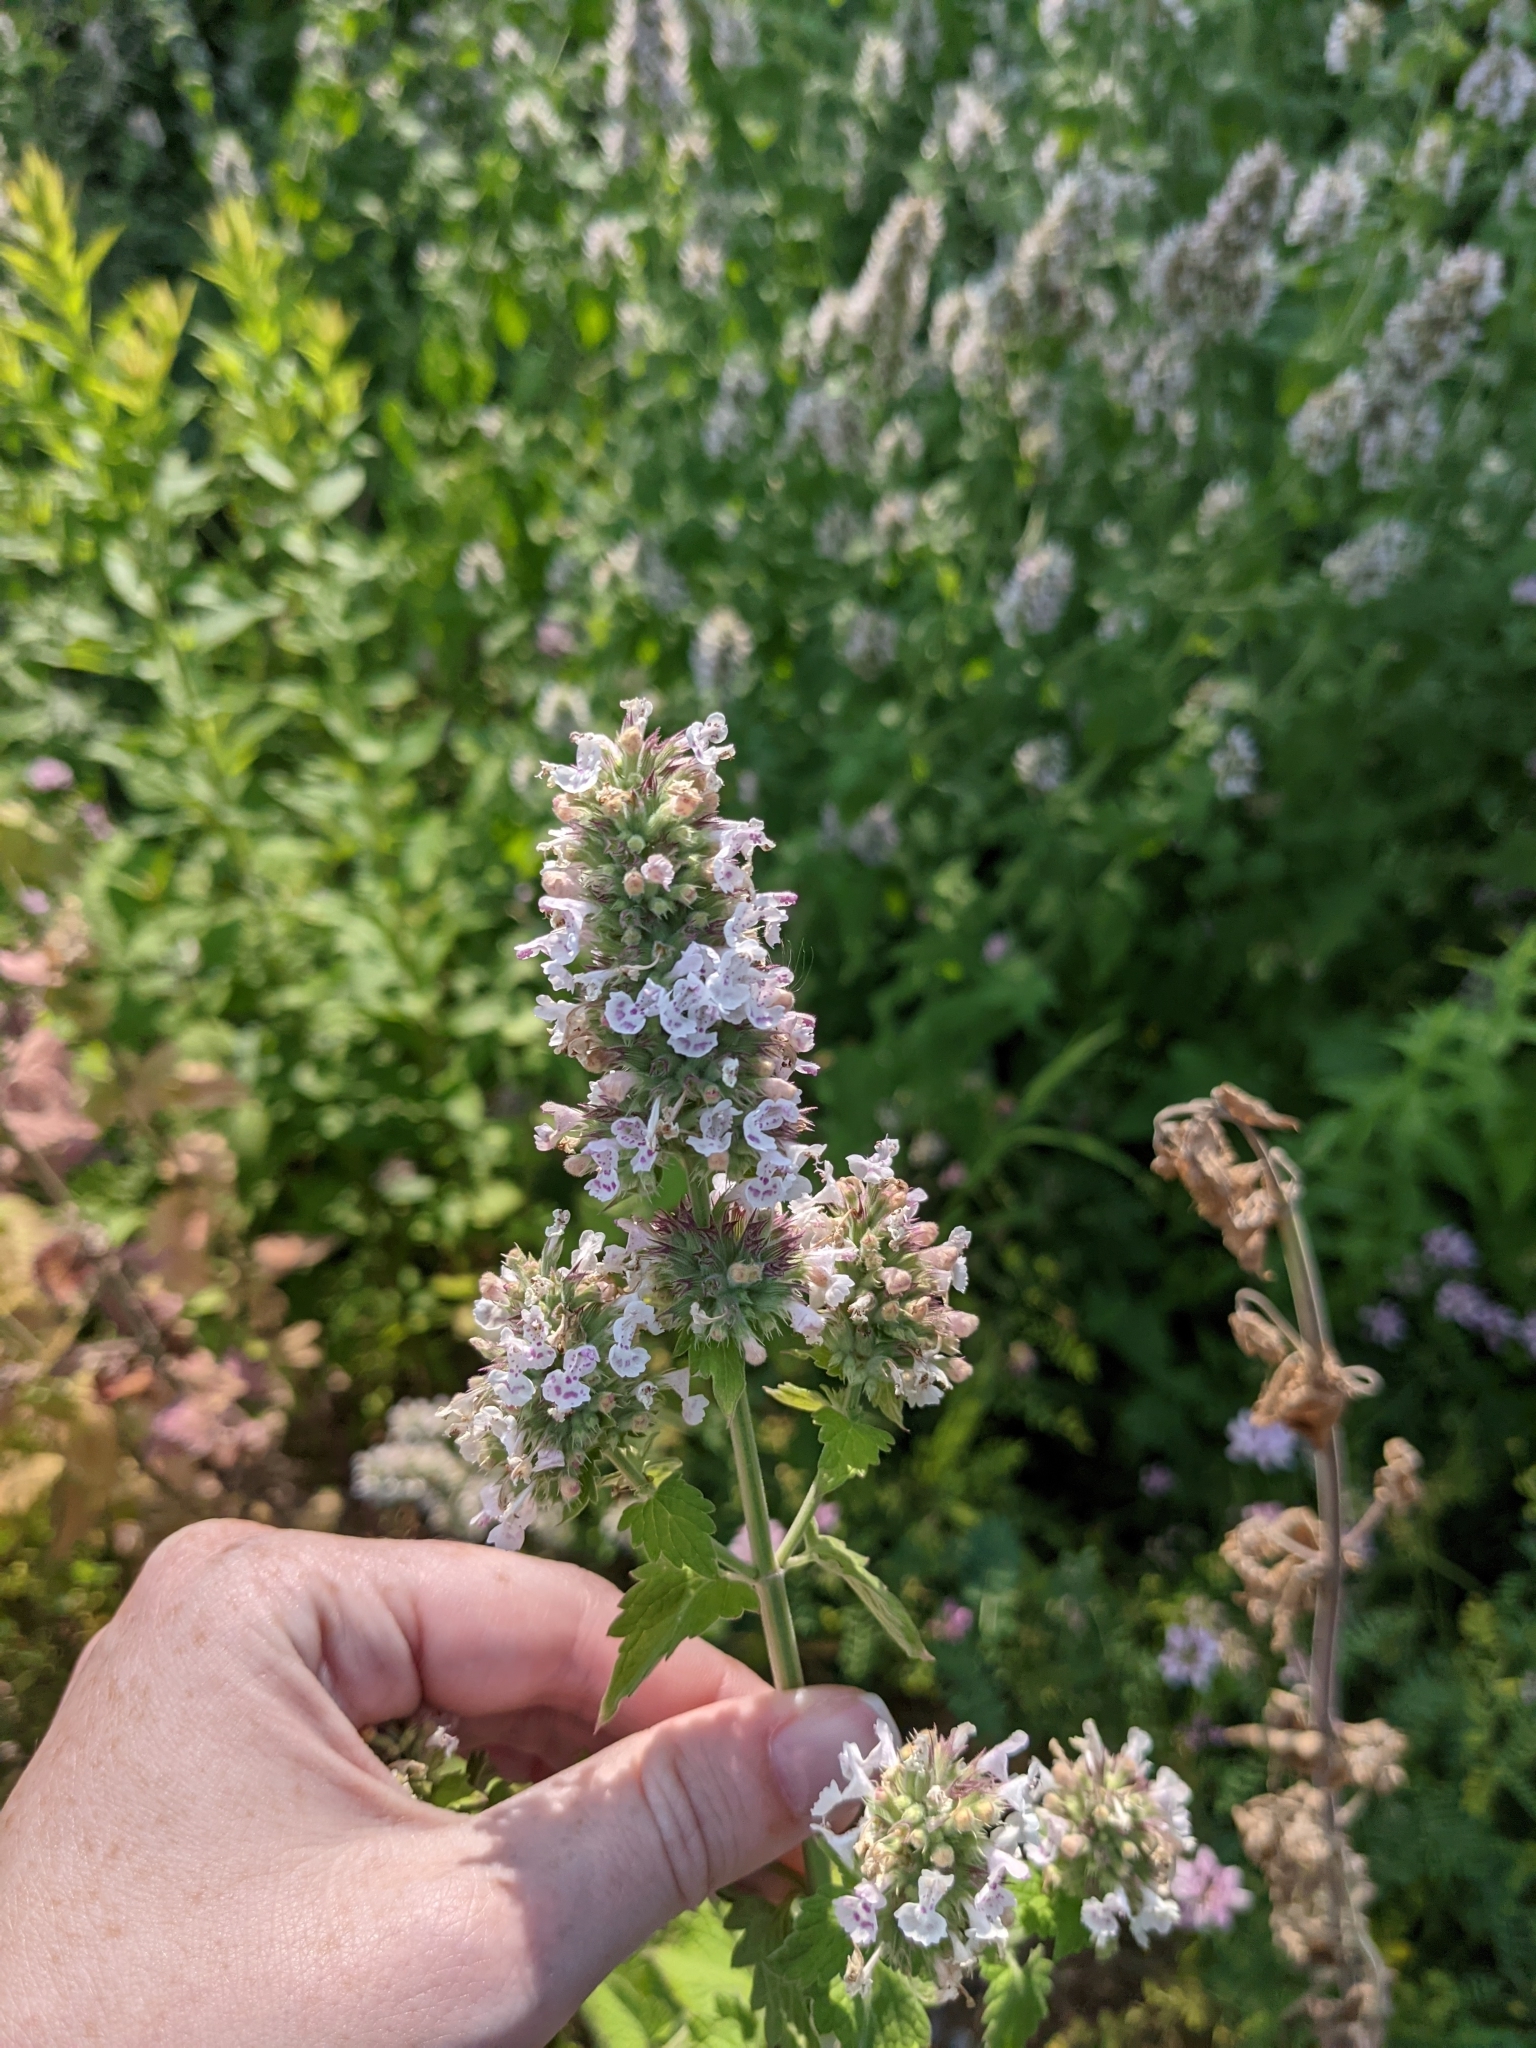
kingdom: Plantae
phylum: Tracheophyta
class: Magnoliopsida
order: Lamiales
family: Lamiaceae
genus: Nepeta
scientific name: Nepeta cataria
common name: Catnip
